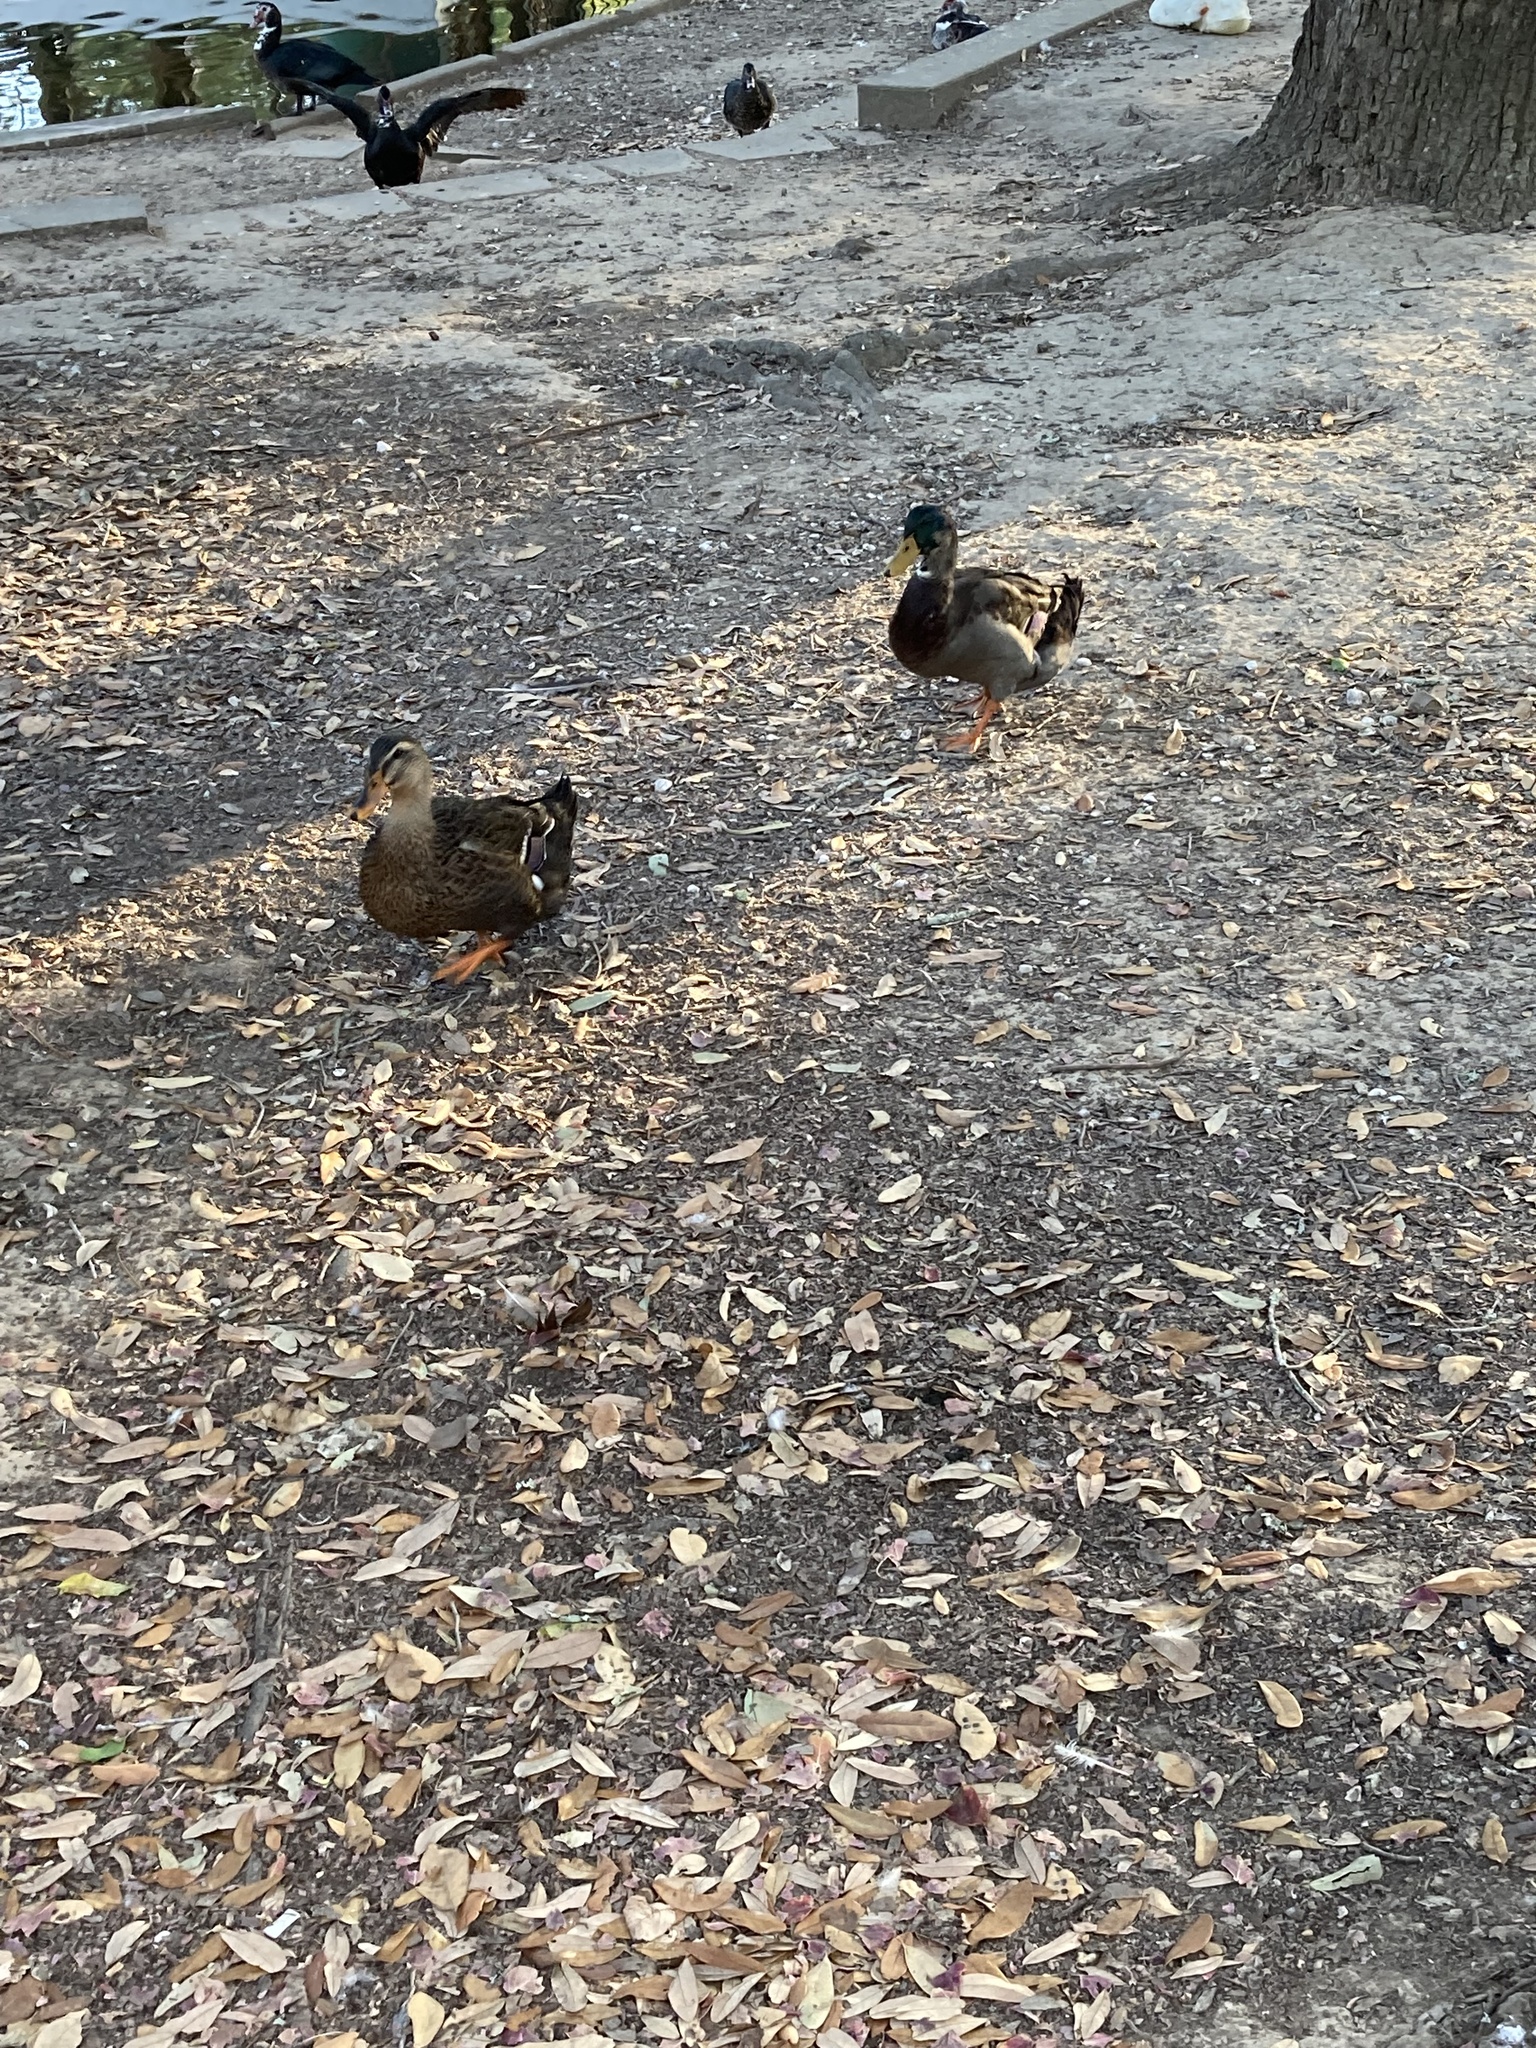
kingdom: Animalia
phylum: Chordata
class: Aves
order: Anseriformes
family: Anatidae
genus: Anas
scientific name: Anas platyrhynchos
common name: Mallard
